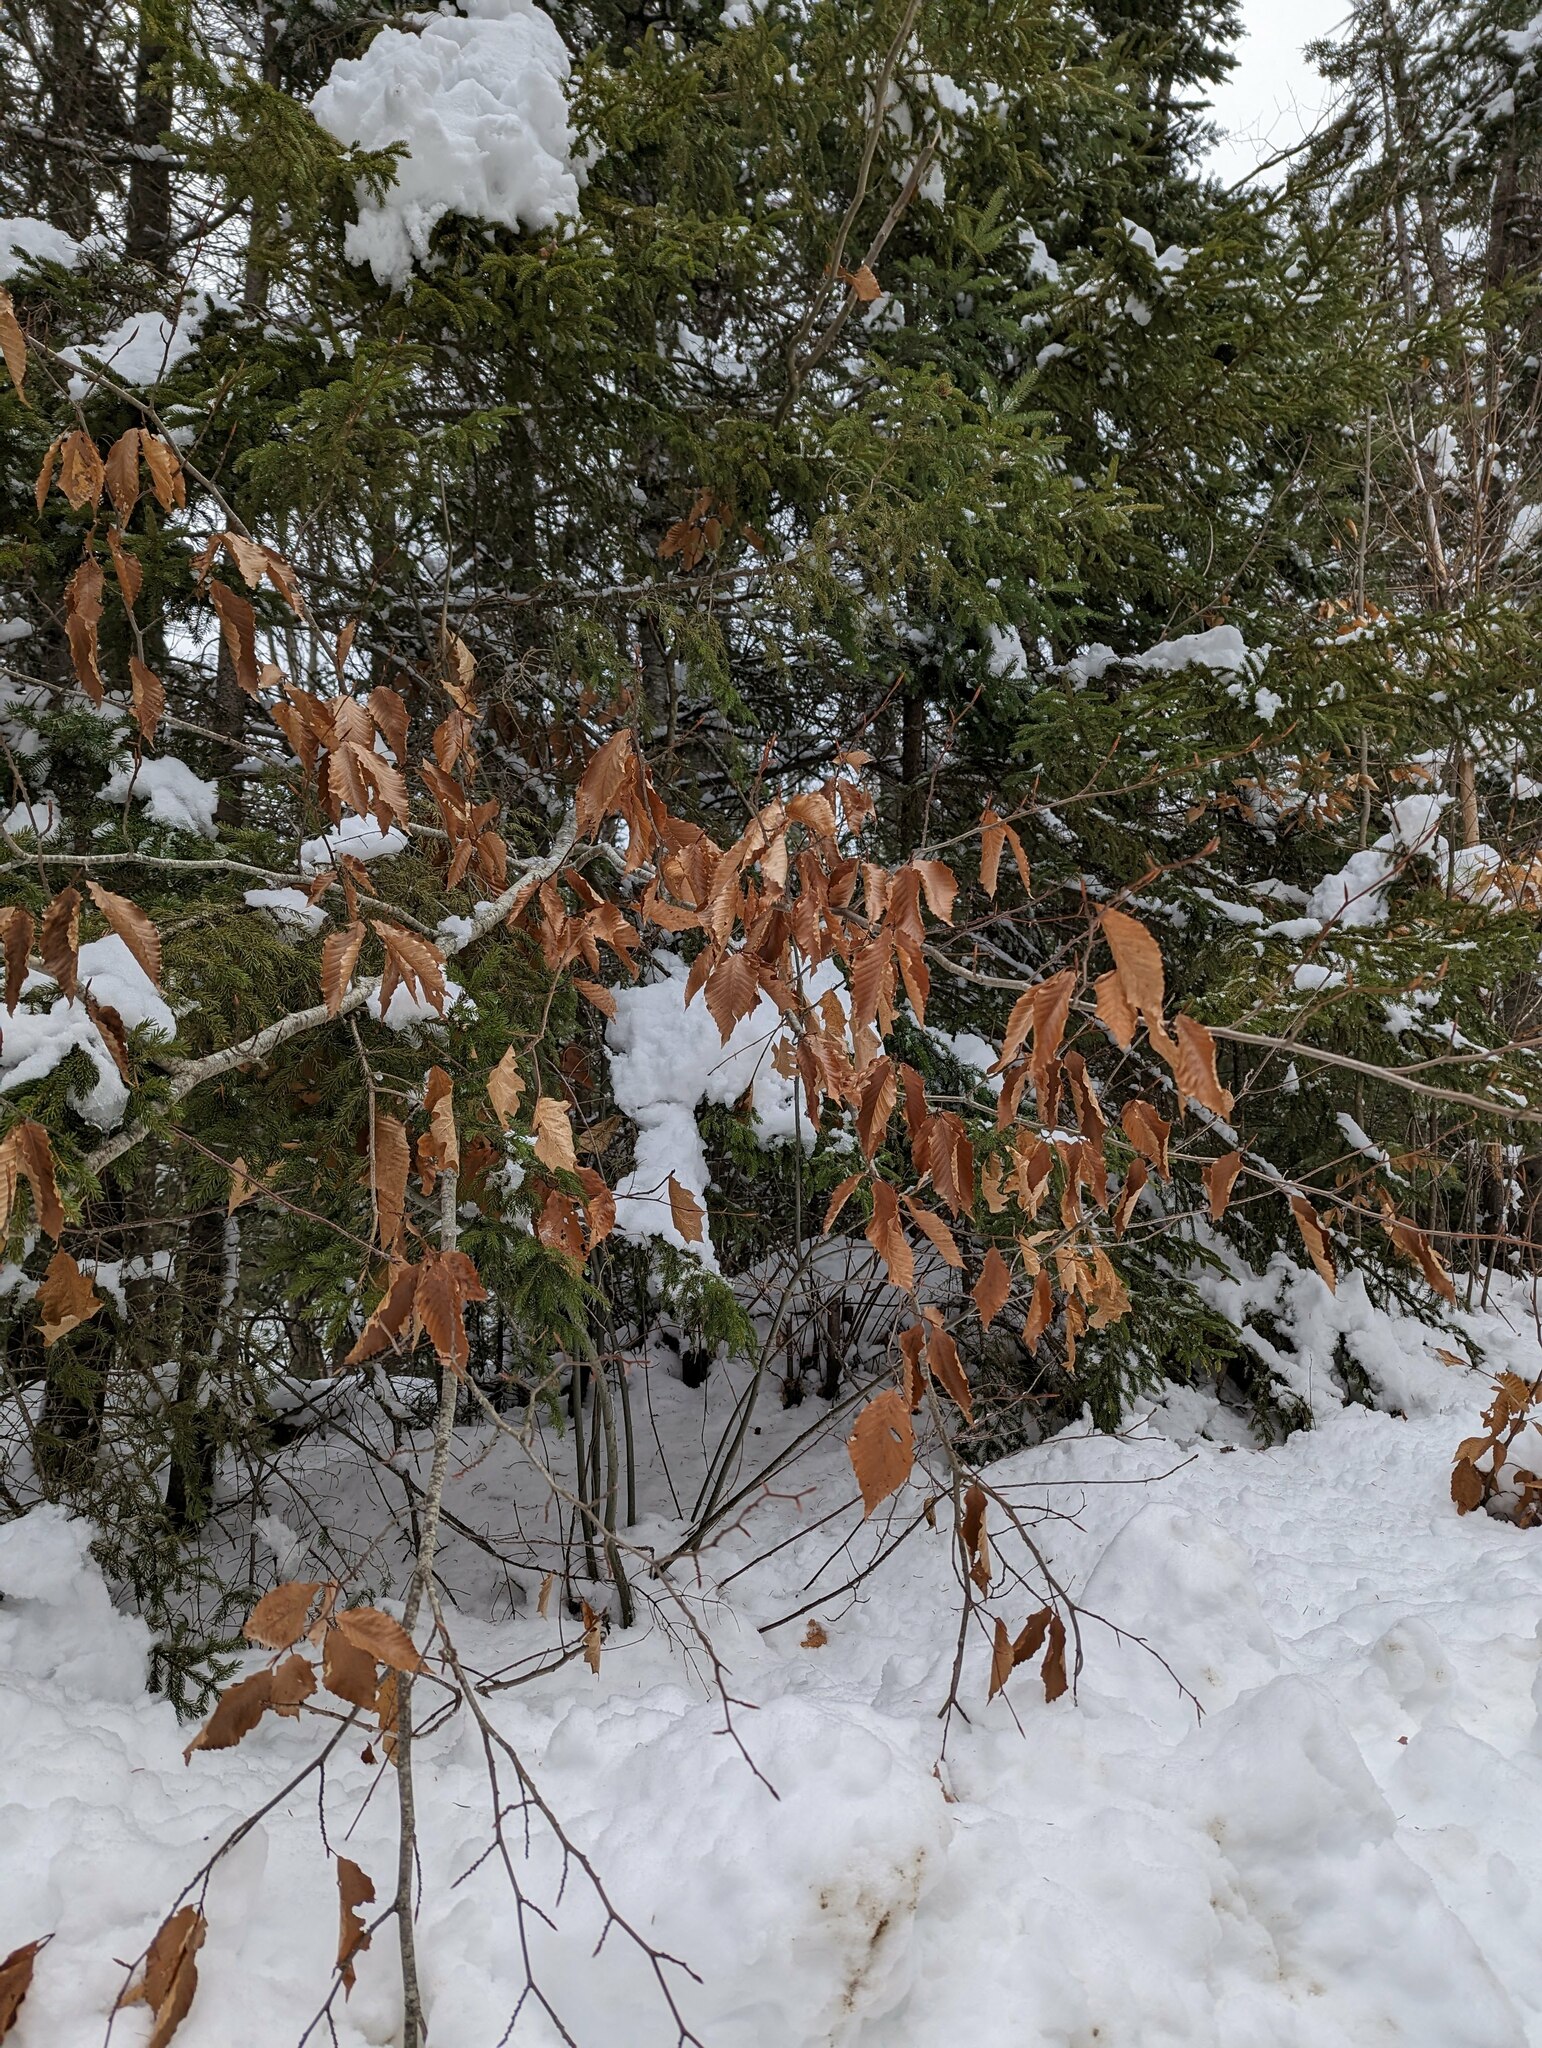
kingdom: Plantae
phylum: Tracheophyta
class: Magnoliopsida
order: Fagales
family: Fagaceae
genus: Fagus
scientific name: Fagus grandifolia
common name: American beech
